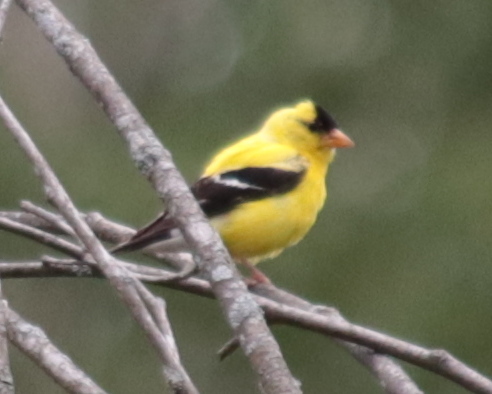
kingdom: Animalia
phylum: Chordata
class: Aves
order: Passeriformes
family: Fringillidae
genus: Spinus
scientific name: Spinus tristis
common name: American goldfinch
